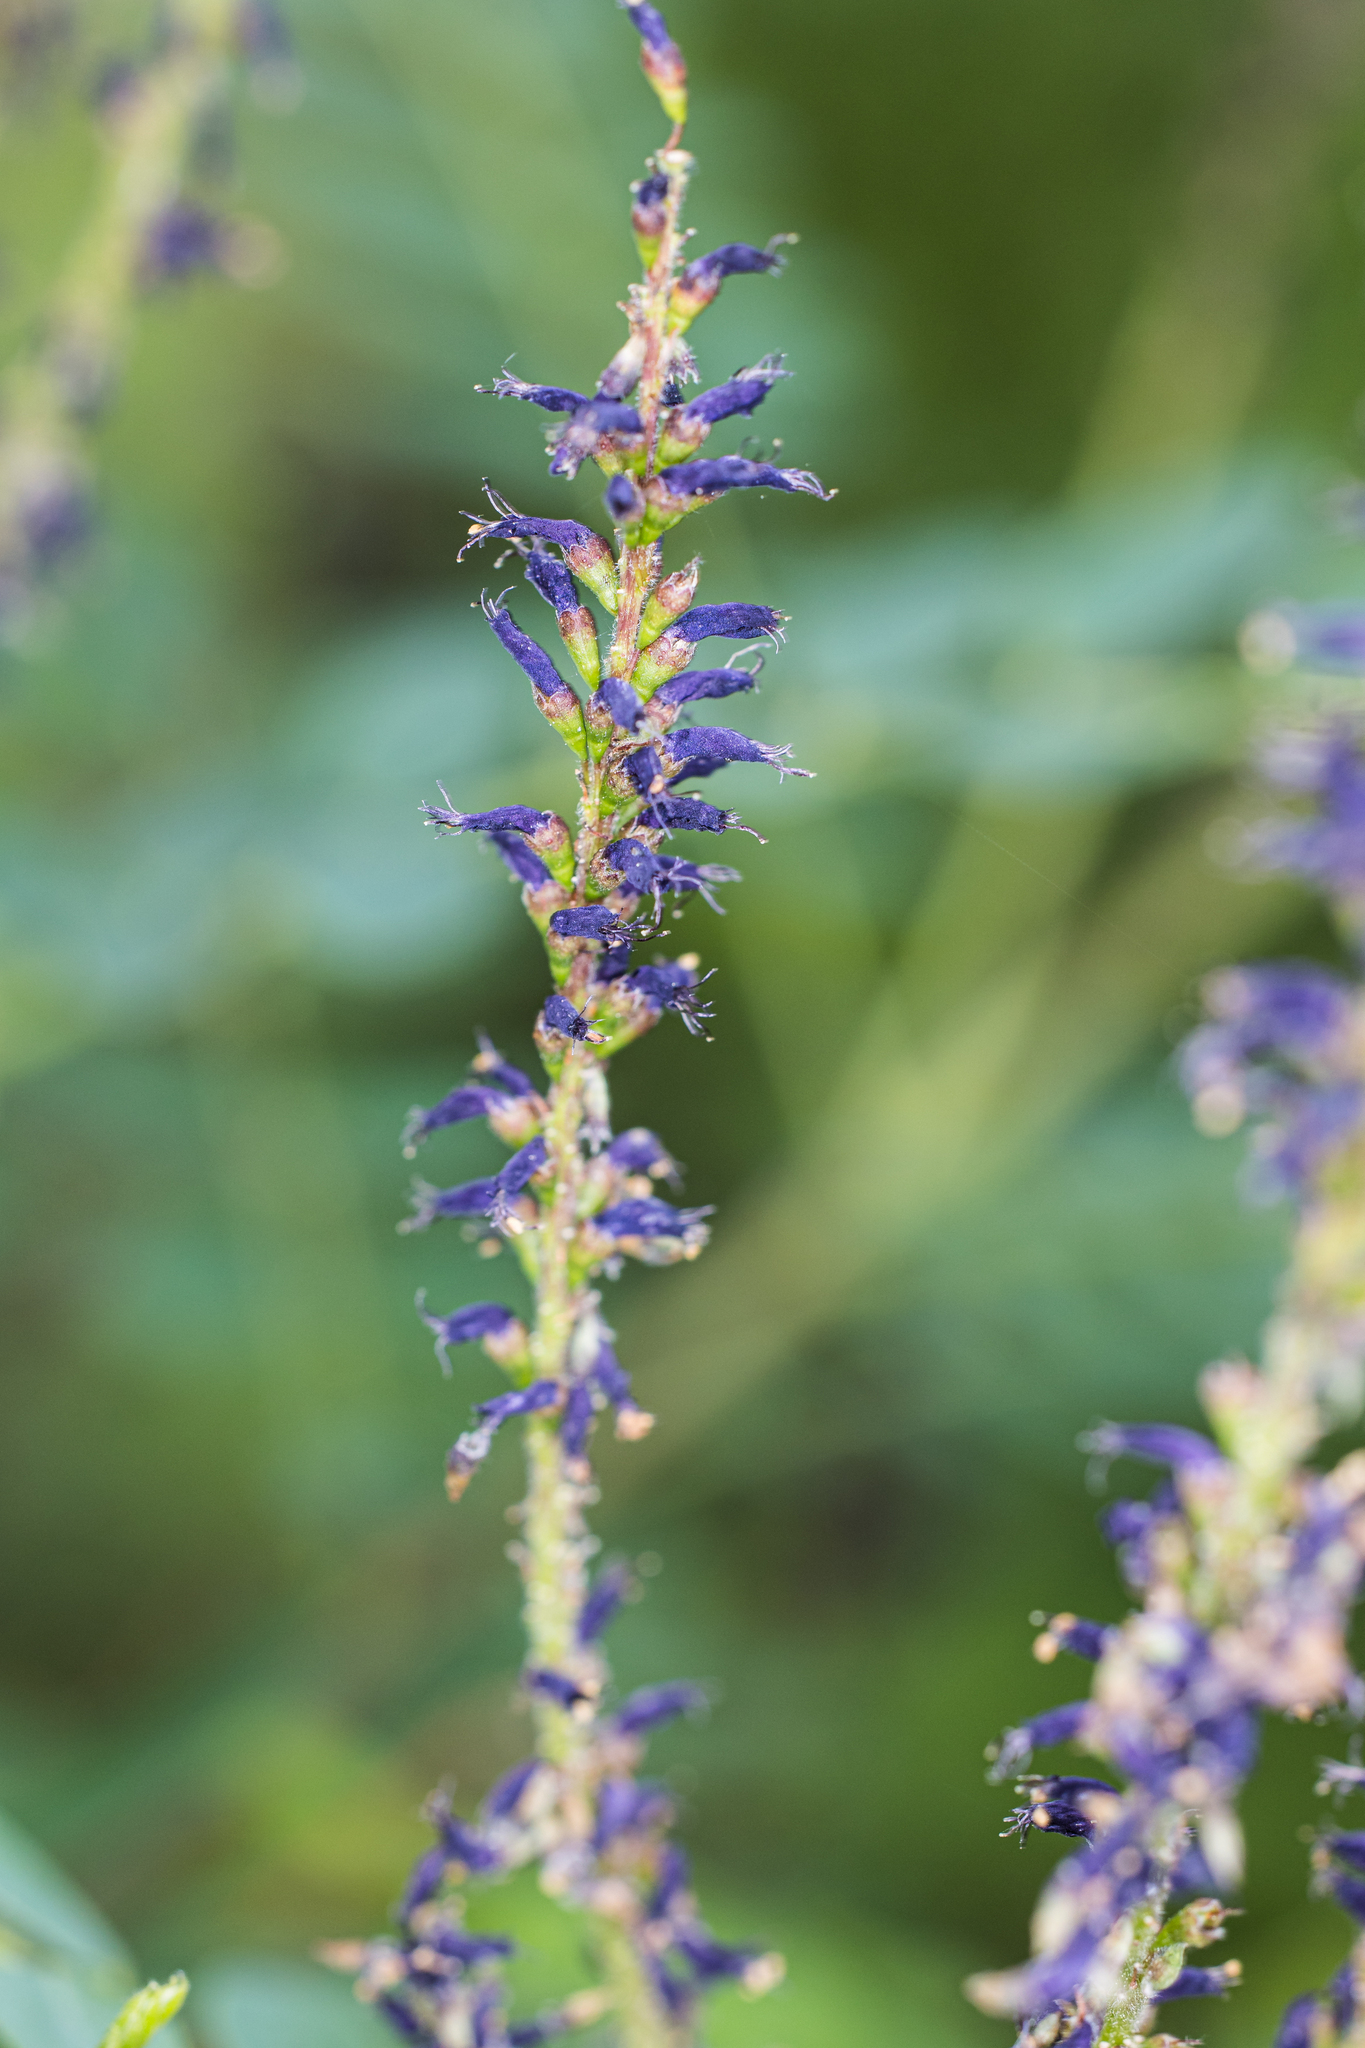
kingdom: Plantae
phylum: Tracheophyta
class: Magnoliopsida
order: Fabales
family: Fabaceae
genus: Amorpha
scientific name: Amorpha fruticosa
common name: False indigo
